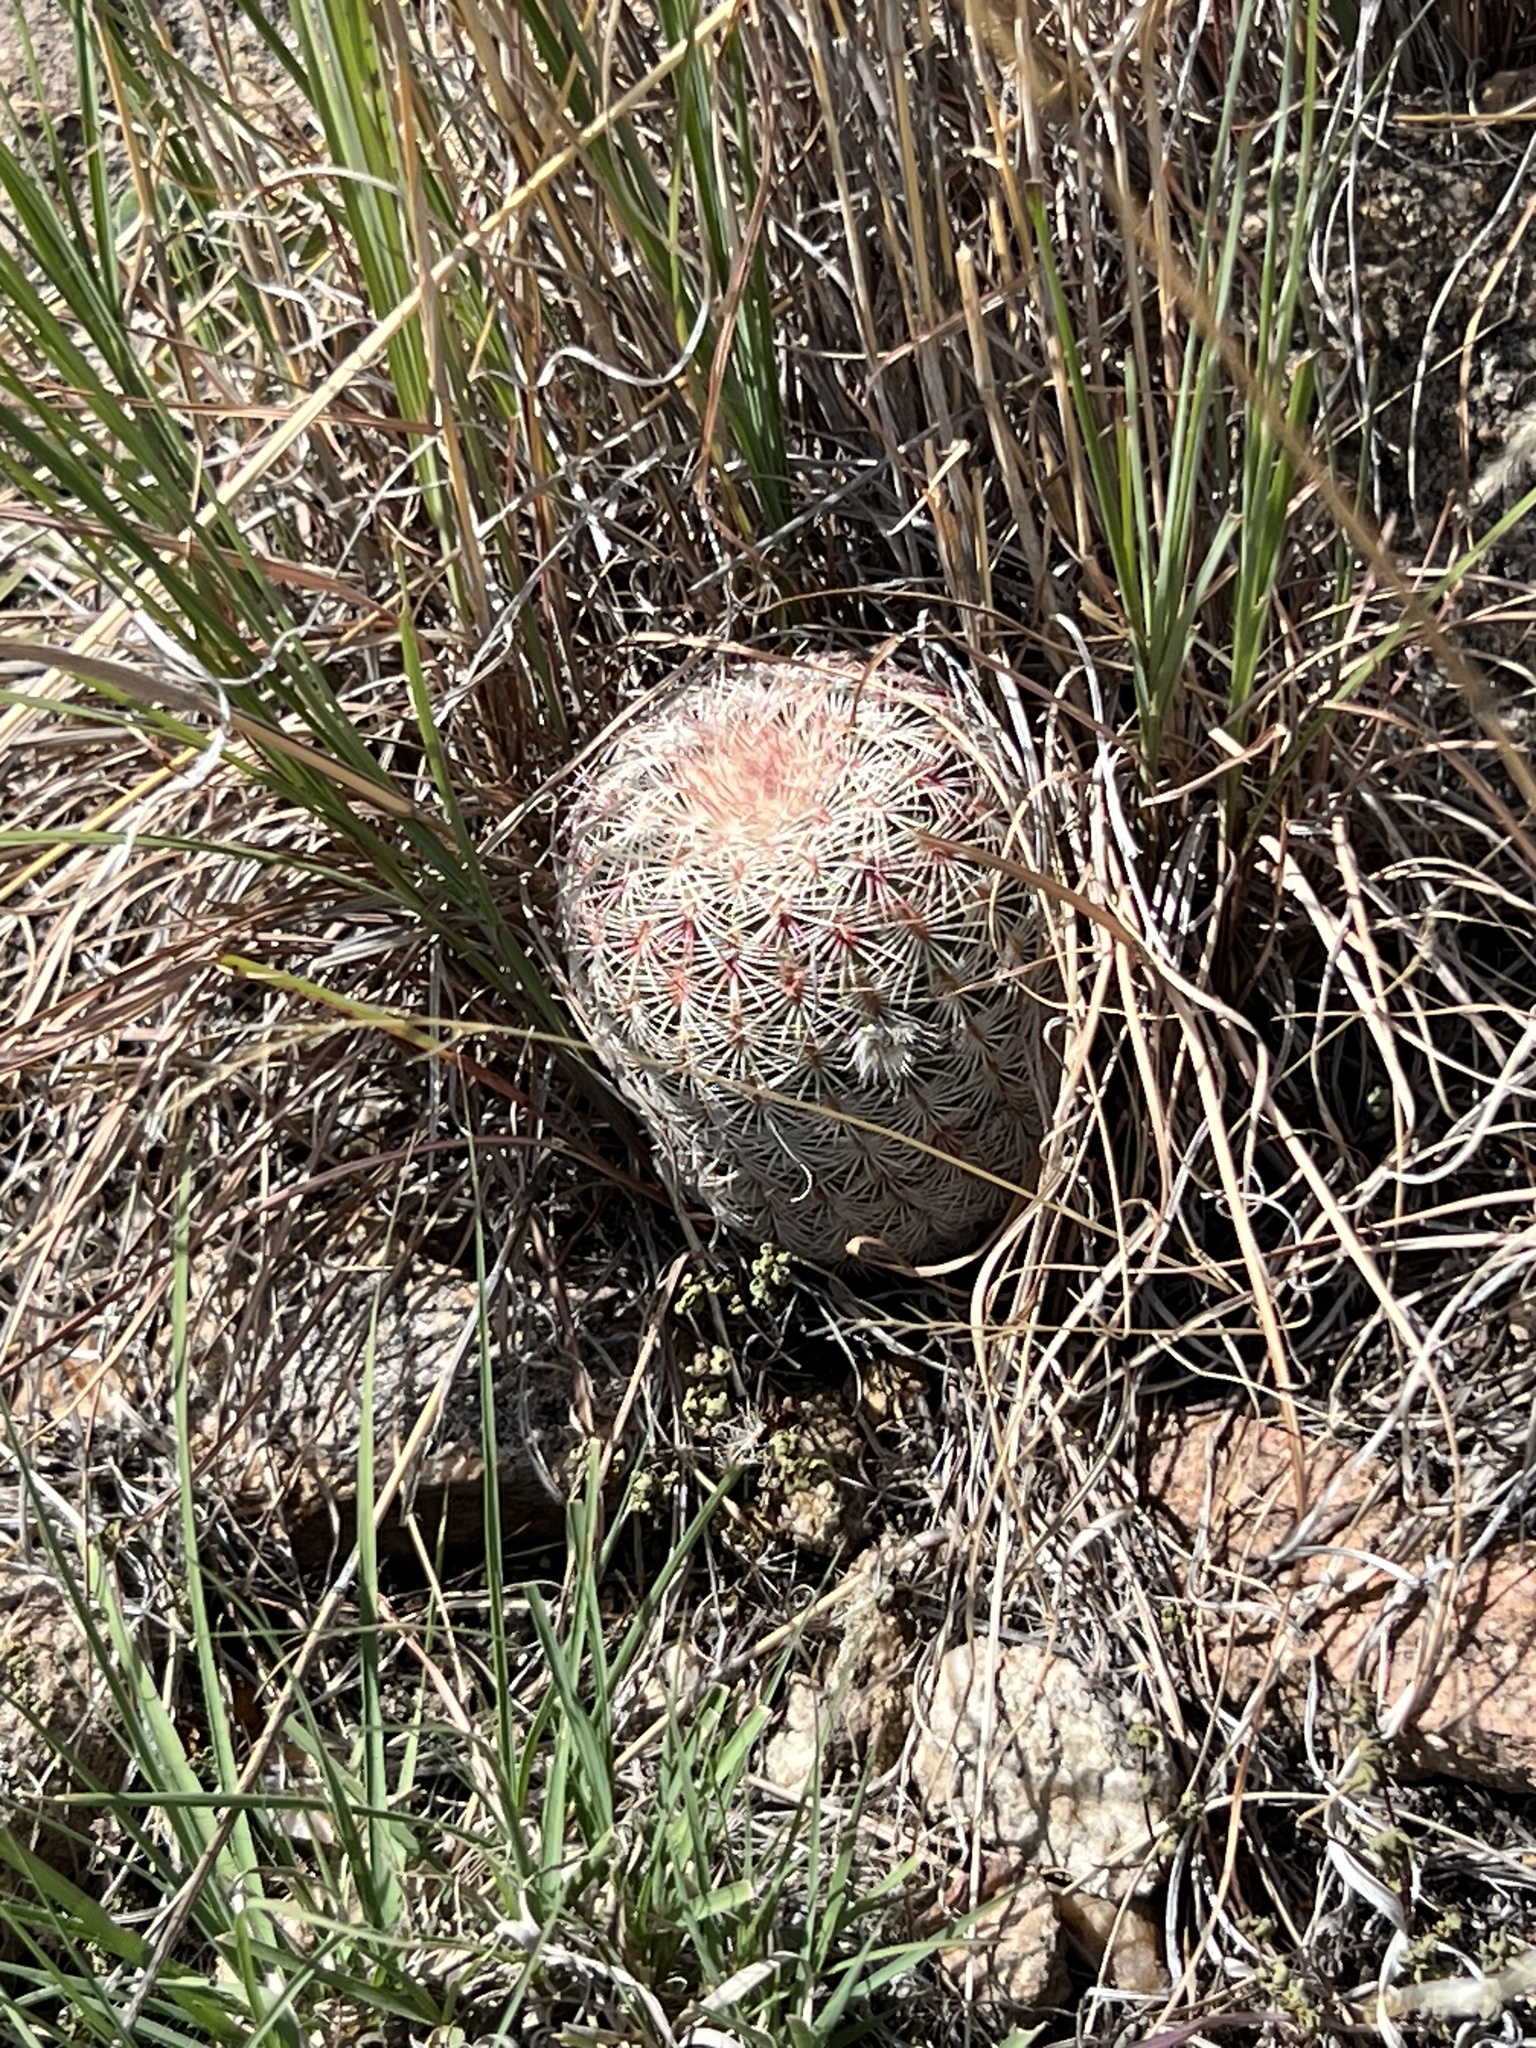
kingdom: Plantae
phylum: Tracheophyta
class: Magnoliopsida
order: Caryophyllales
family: Cactaceae
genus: Echinocereus
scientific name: Echinocereus rigidissimus
